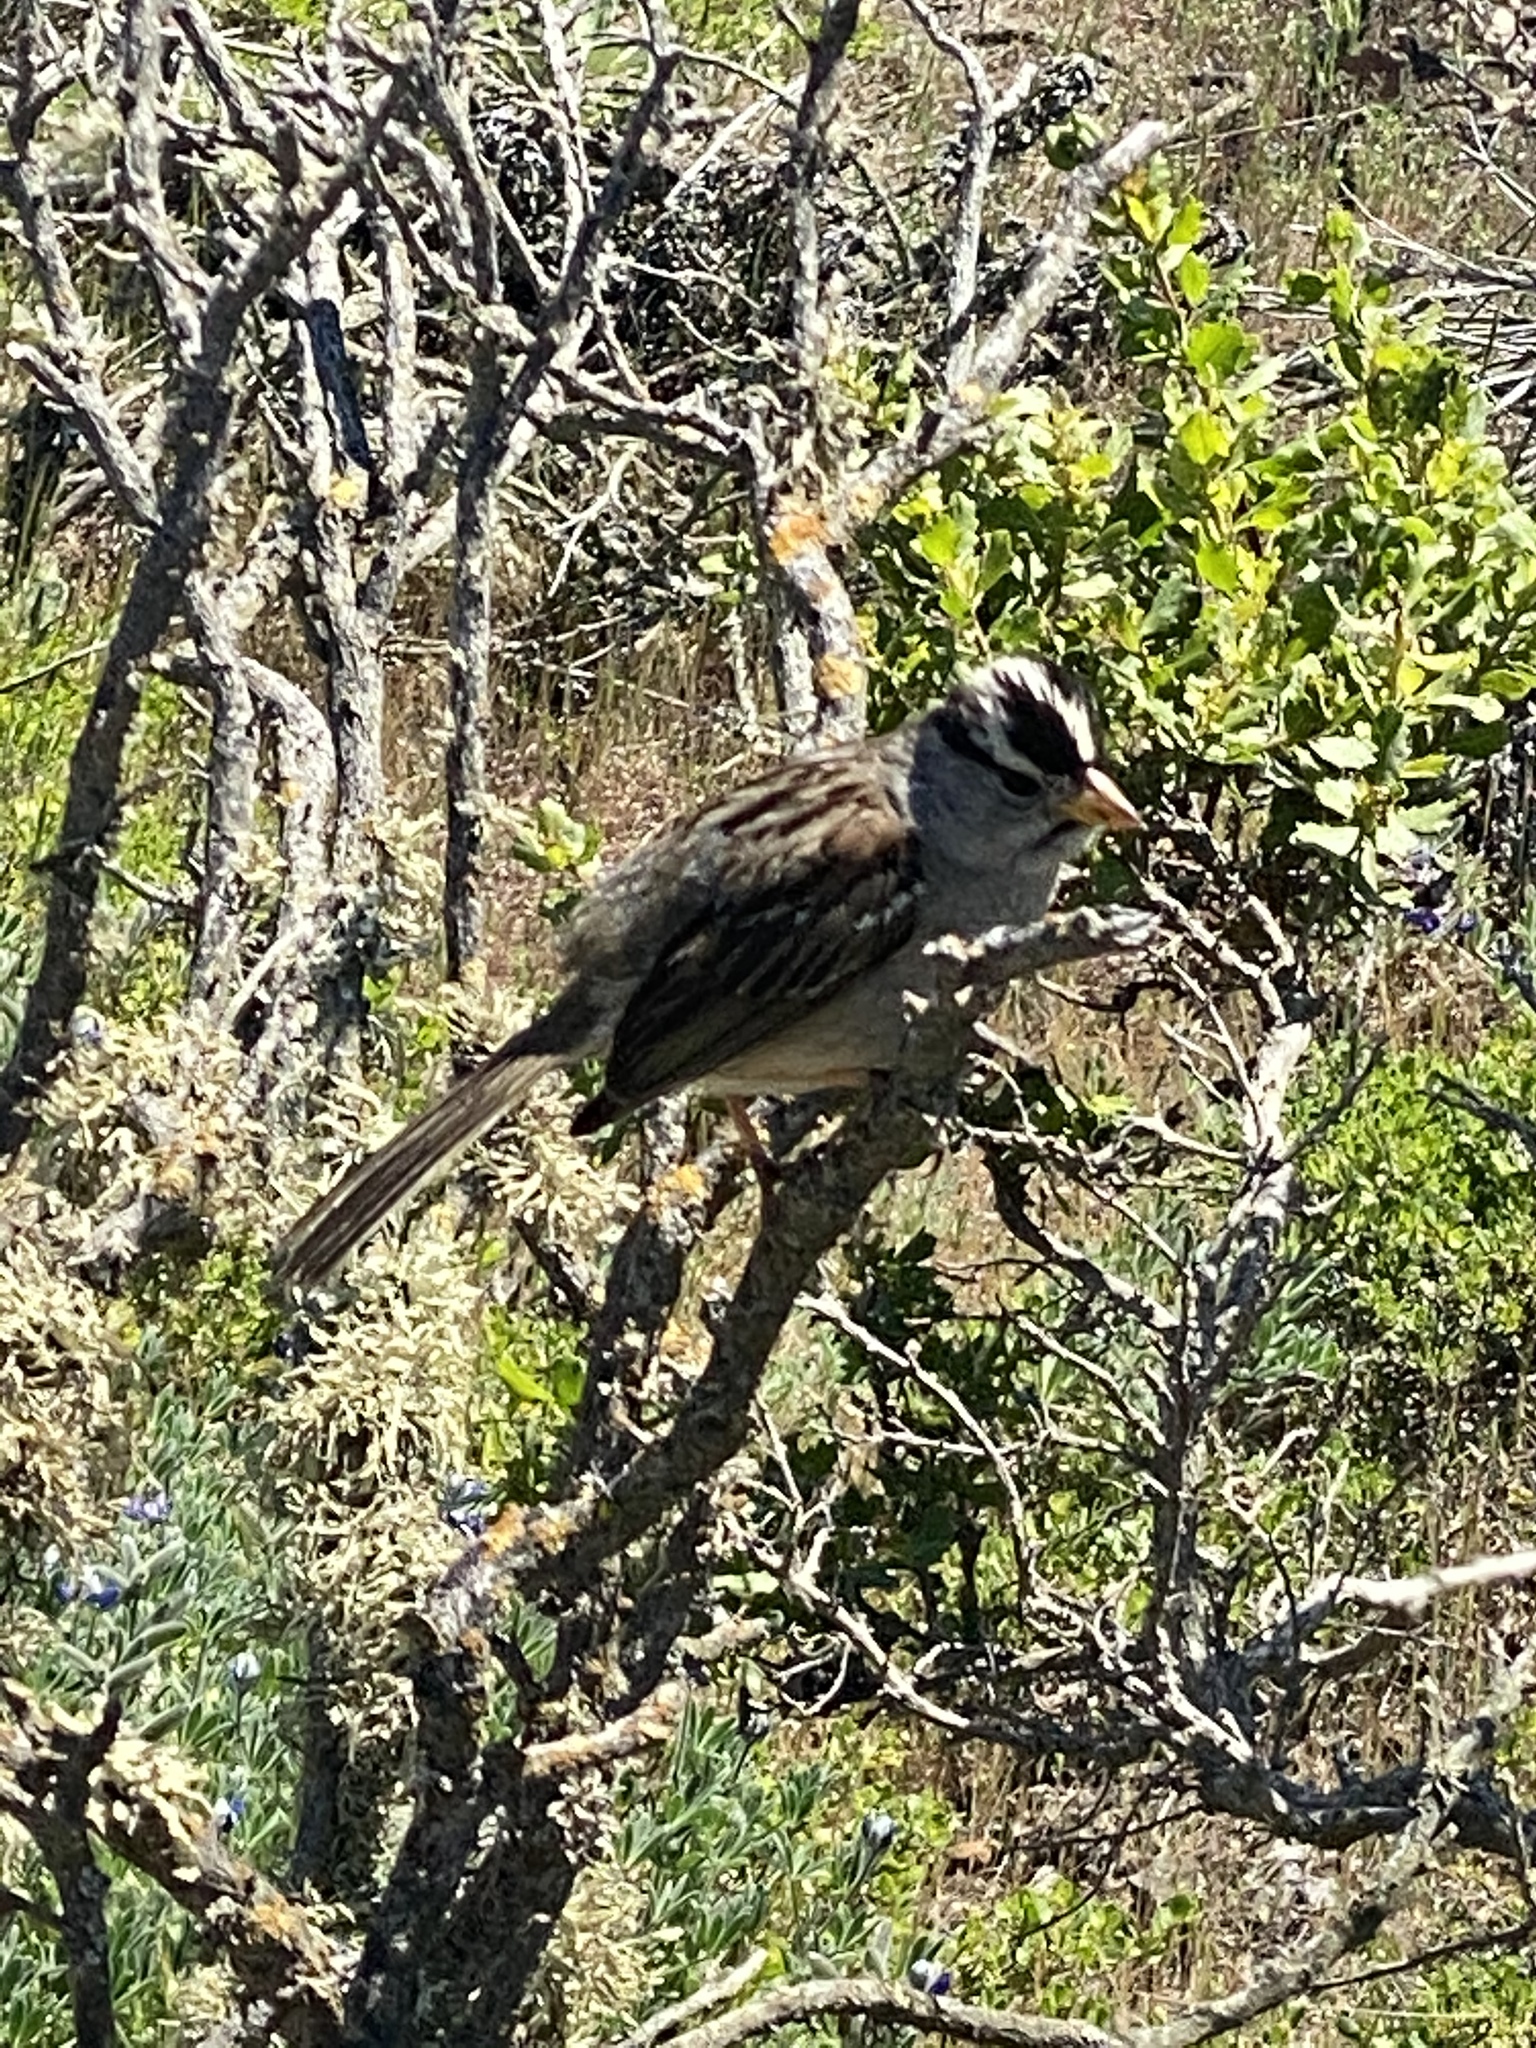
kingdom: Animalia
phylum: Chordata
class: Aves
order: Passeriformes
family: Passerellidae
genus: Zonotrichia
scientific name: Zonotrichia leucophrys
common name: White-crowned sparrow
